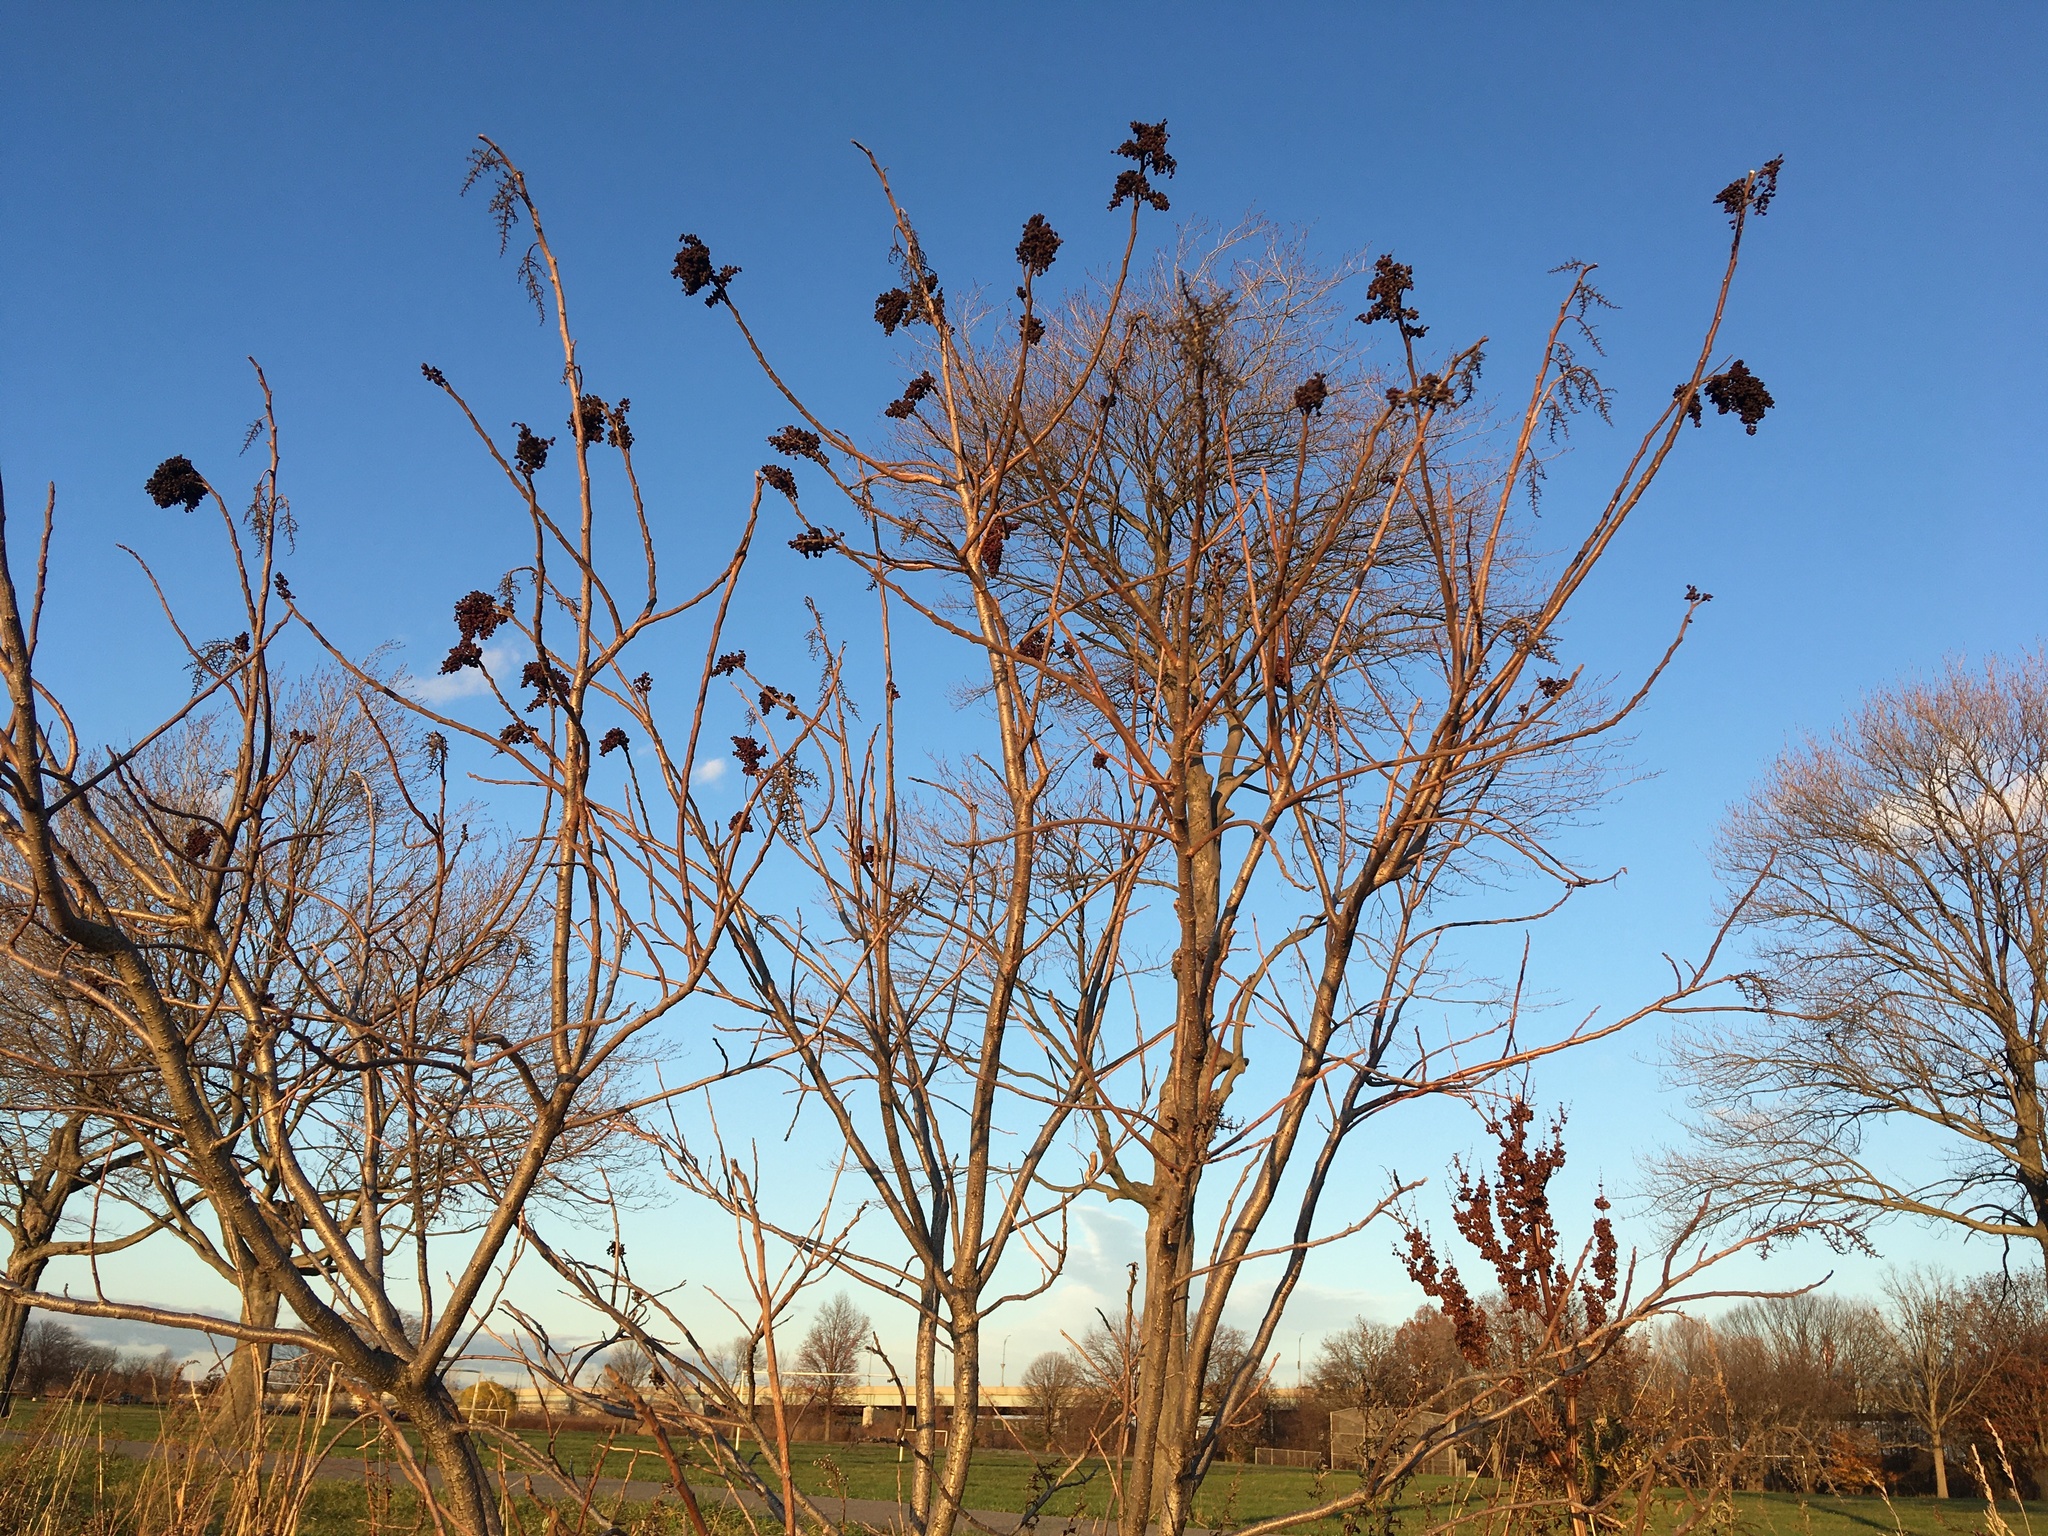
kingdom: Plantae
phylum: Tracheophyta
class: Magnoliopsida
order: Sapindales
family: Anacardiaceae
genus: Rhus
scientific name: Rhus copallina
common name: Shining sumac
